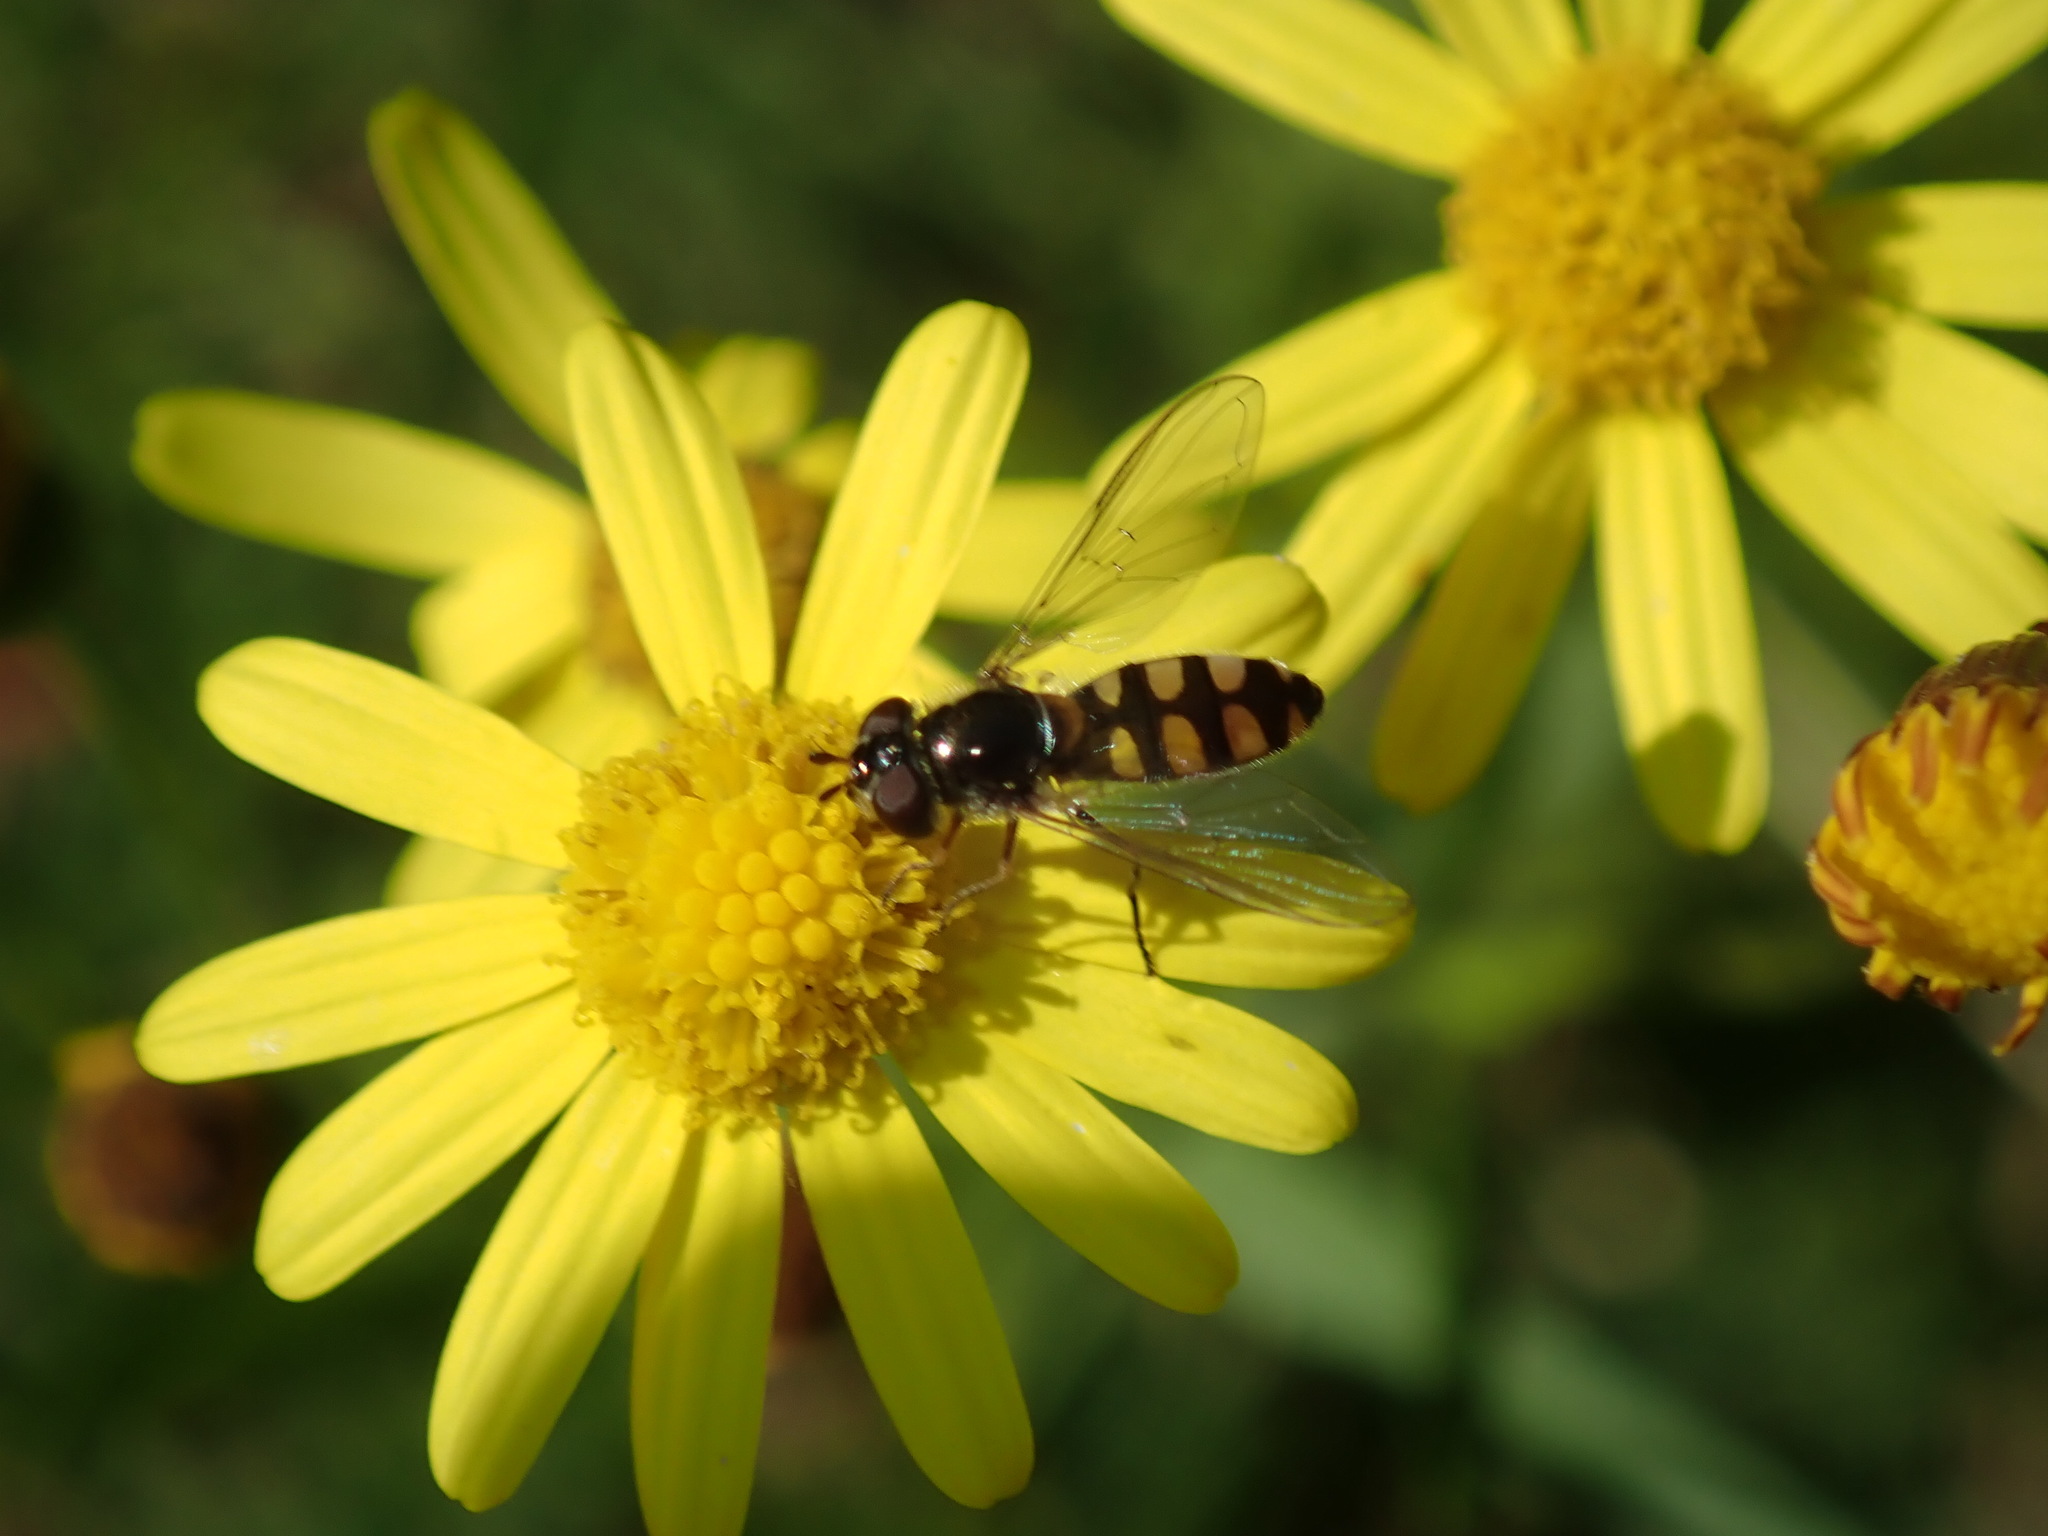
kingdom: Animalia
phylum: Arthropoda
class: Insecta
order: Diptera
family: Syrphidae
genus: Melangyna
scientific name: Melangyna viridiceps
